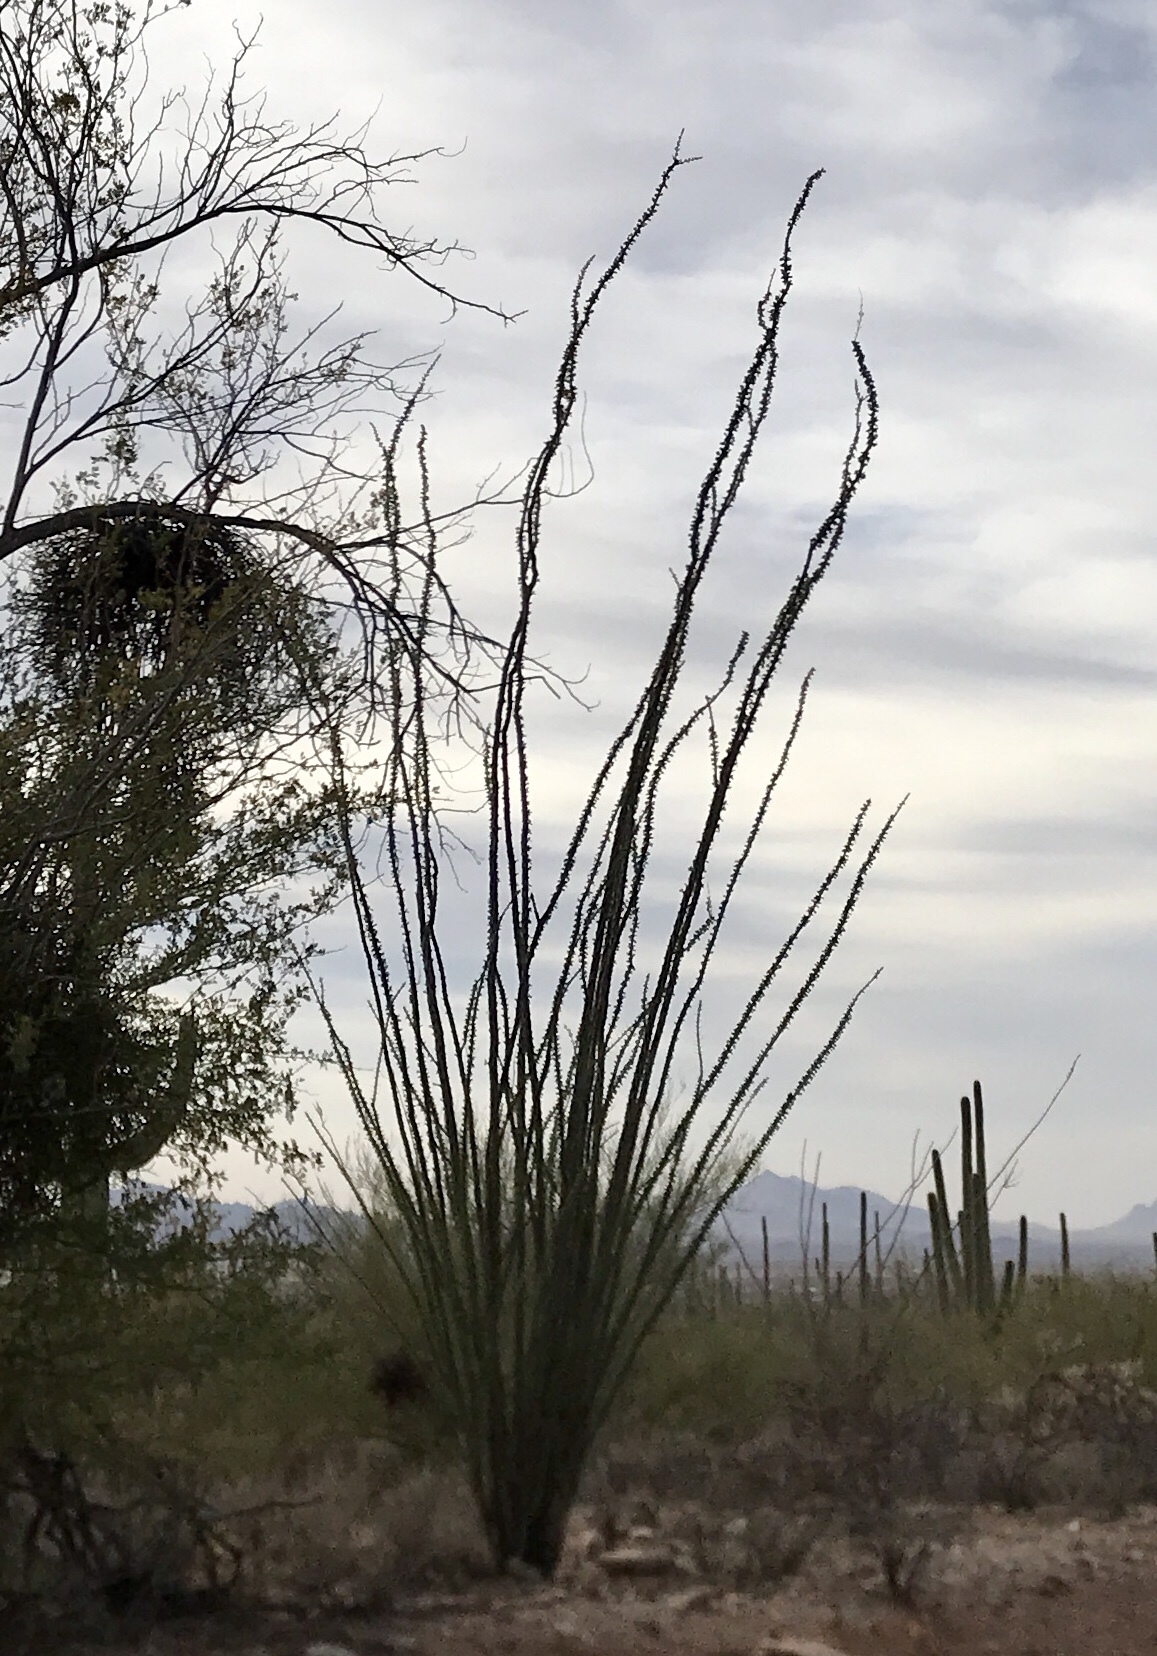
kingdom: Plantae
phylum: Tracheophyta
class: Magnoliopsida
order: Ericales
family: Fouquieriaceae
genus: Fouquieria
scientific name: Fouquieria splendens
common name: Vine-cactus
